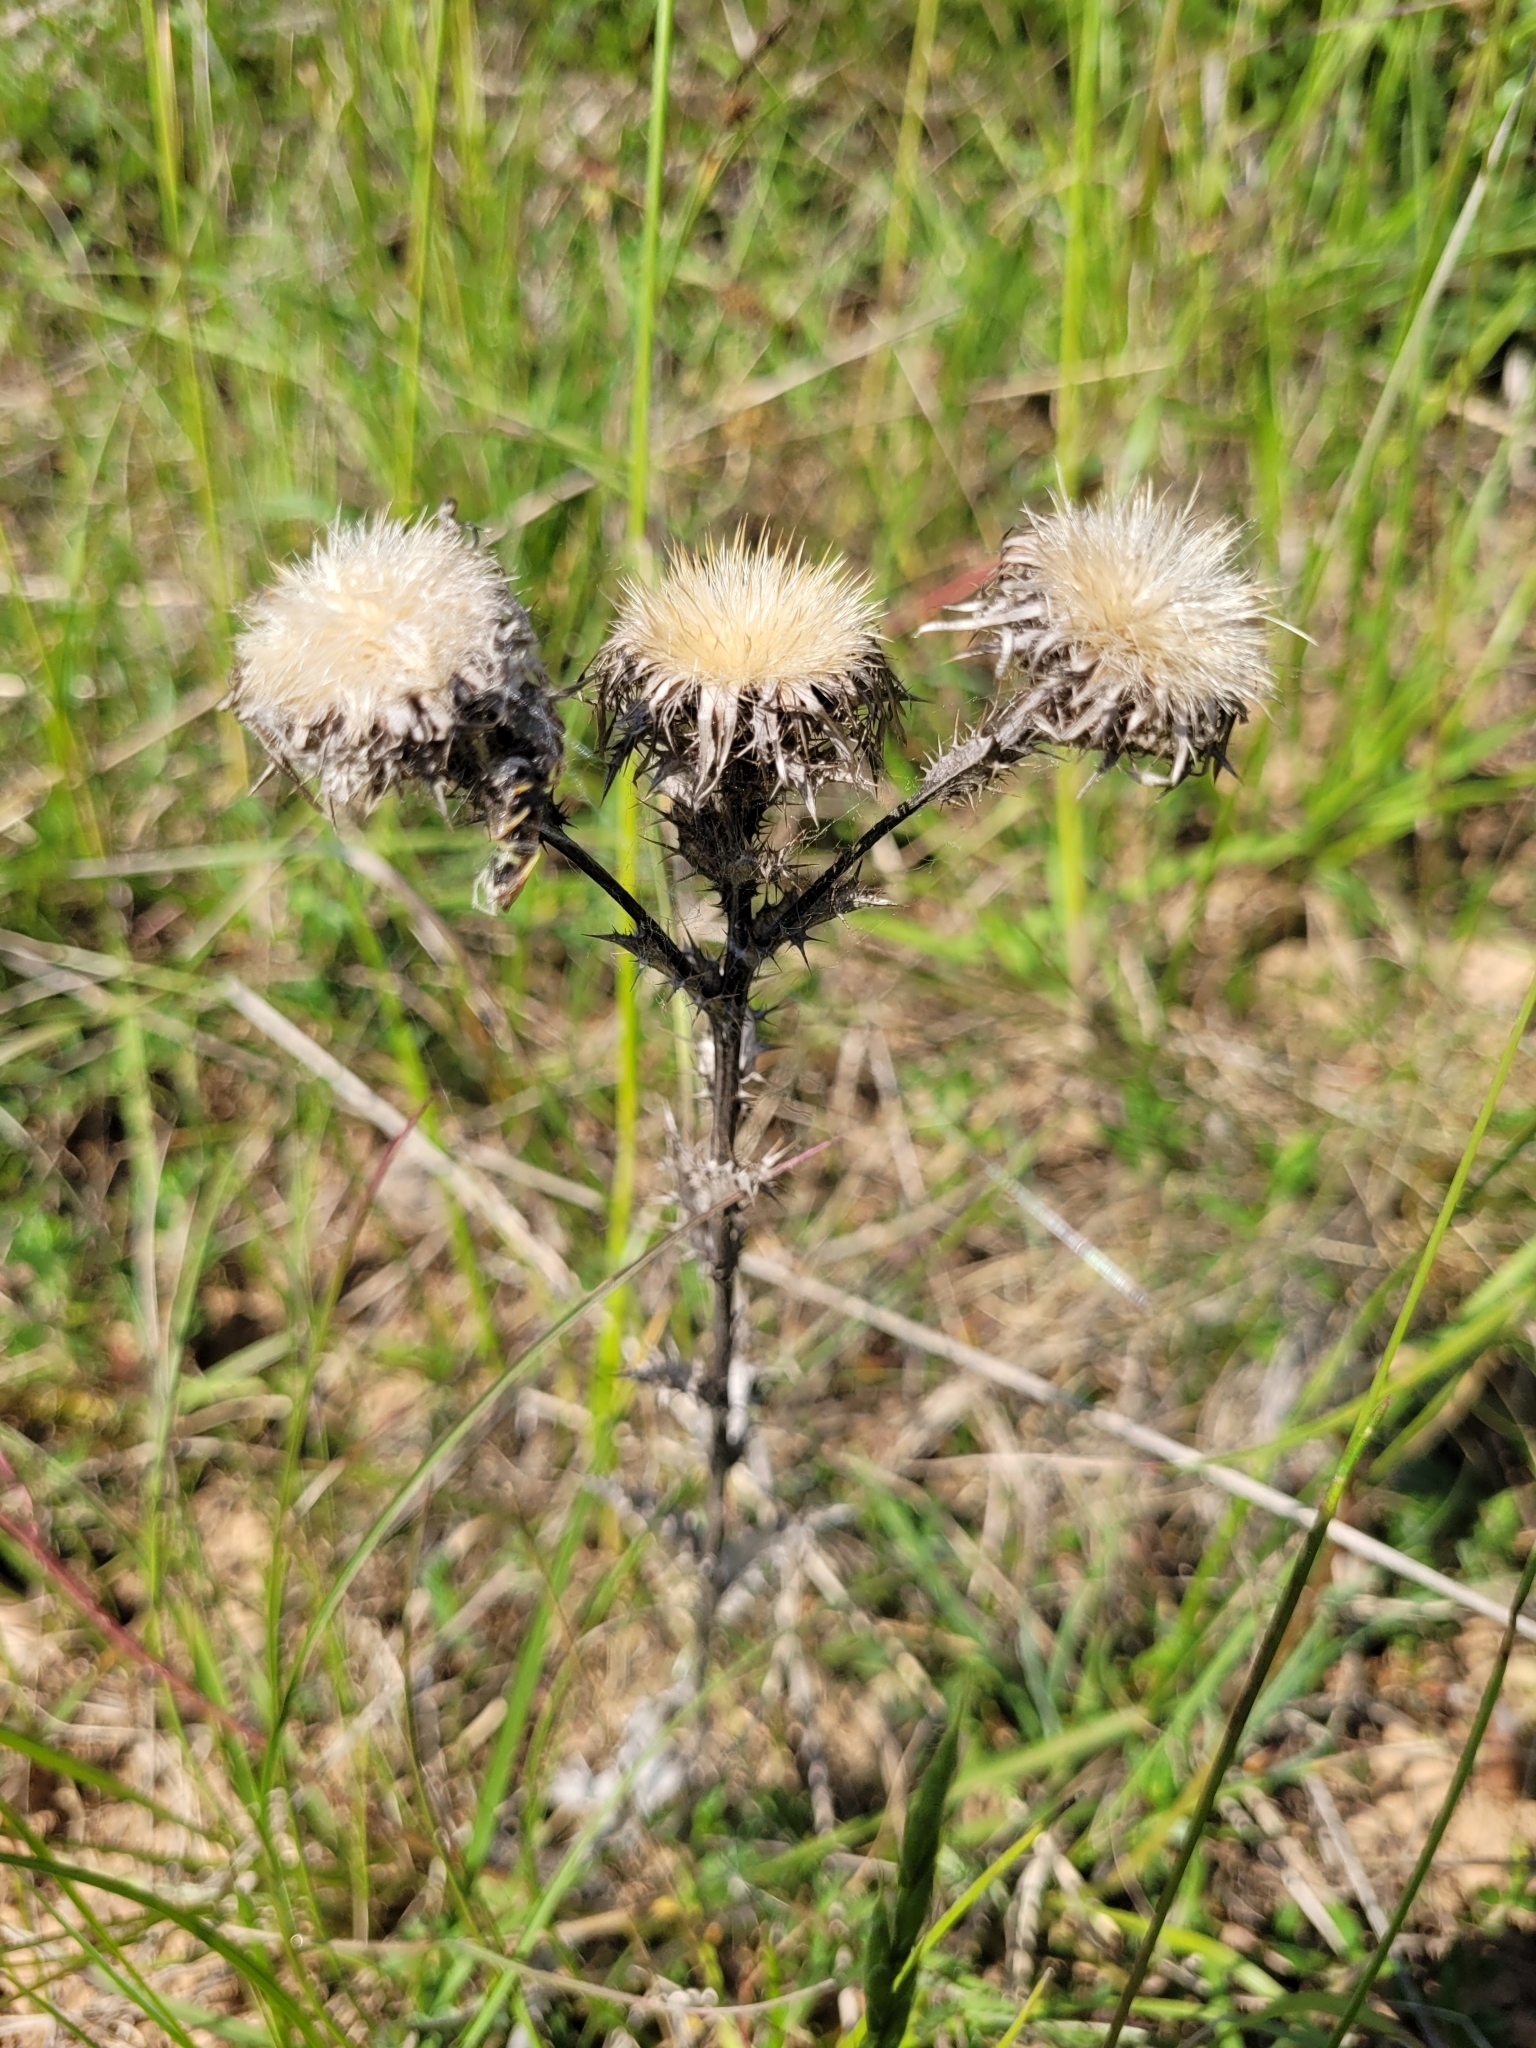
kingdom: Plantae
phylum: Tracheophyta
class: Magnoliopsida
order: Asterales
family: Asteraceae
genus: Carlina
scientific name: Carlina vulgaris
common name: Carline thistle
